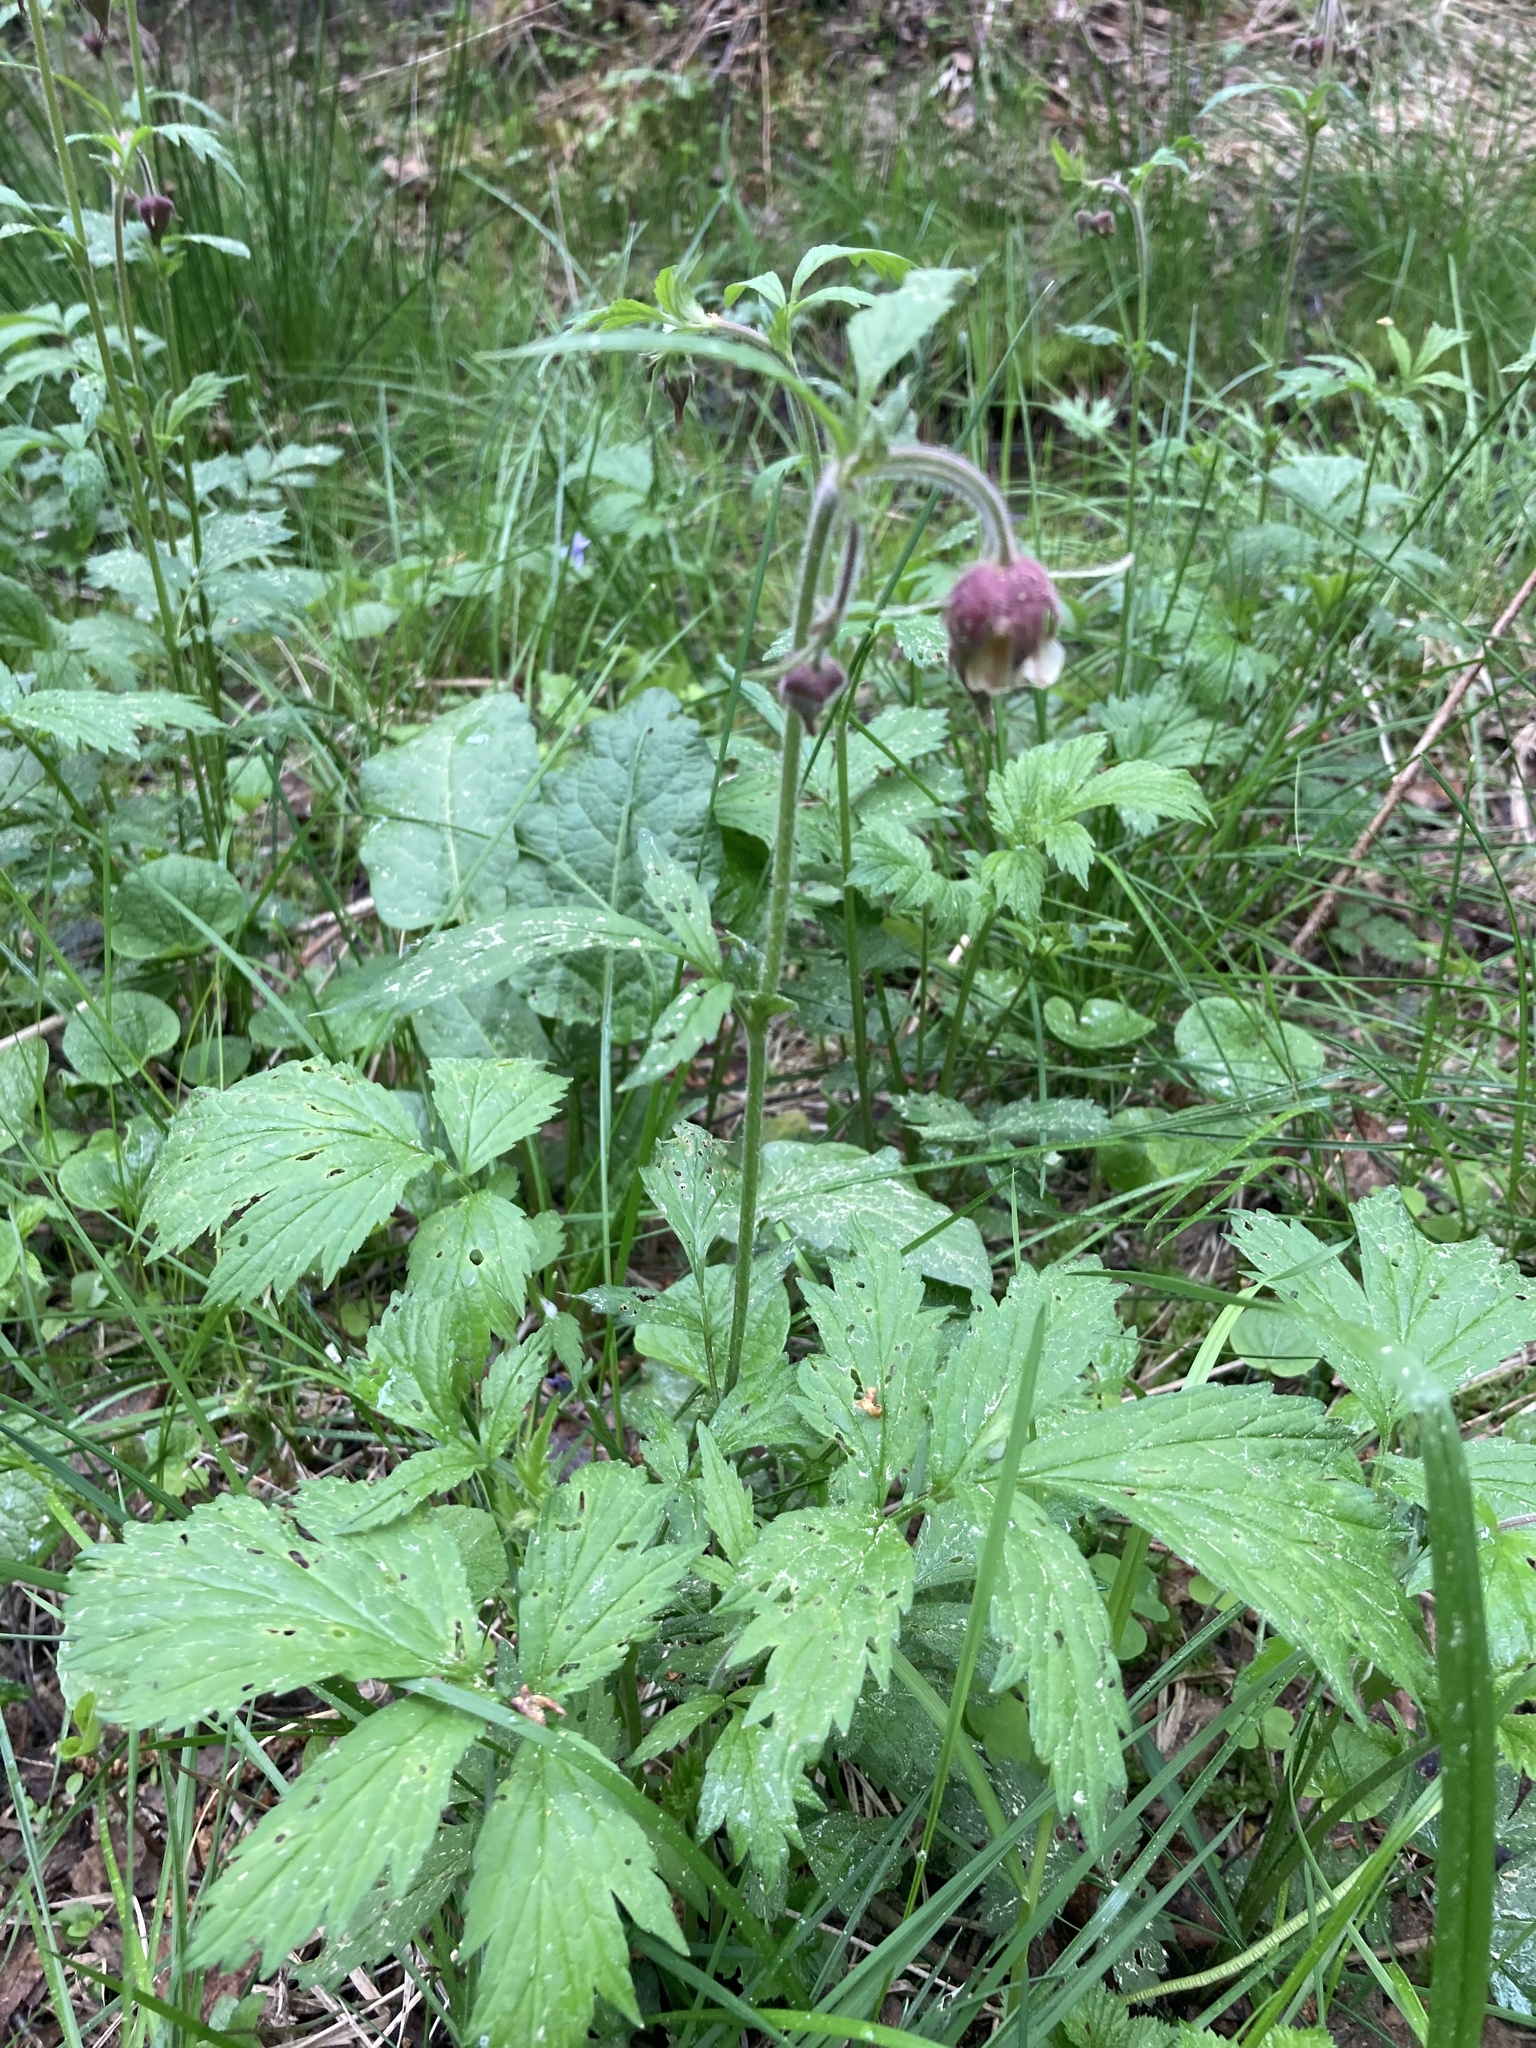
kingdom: Plantae
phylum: Tracheophyta
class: Magnoliopsida
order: Rosales
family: Rosaceae
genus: Geum
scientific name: Geum rivale
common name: Water avens
